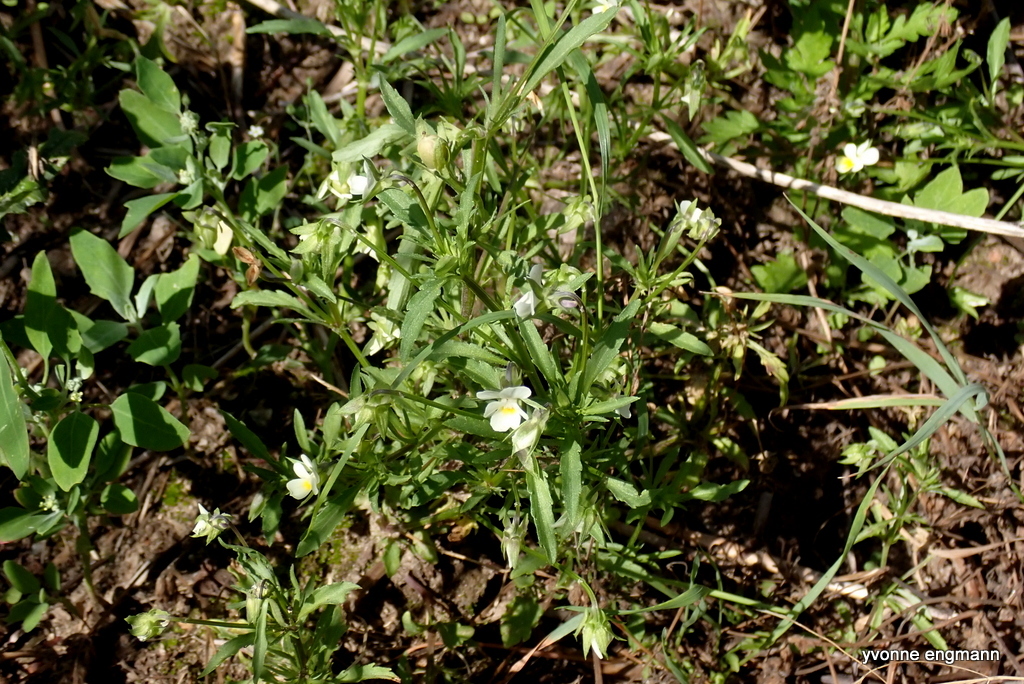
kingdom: Plantae
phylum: Tracheophyta
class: Magnoliopsida
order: Malpighiales
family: Violaceae
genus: Viola
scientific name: Viola arvensis
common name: Field pansy
